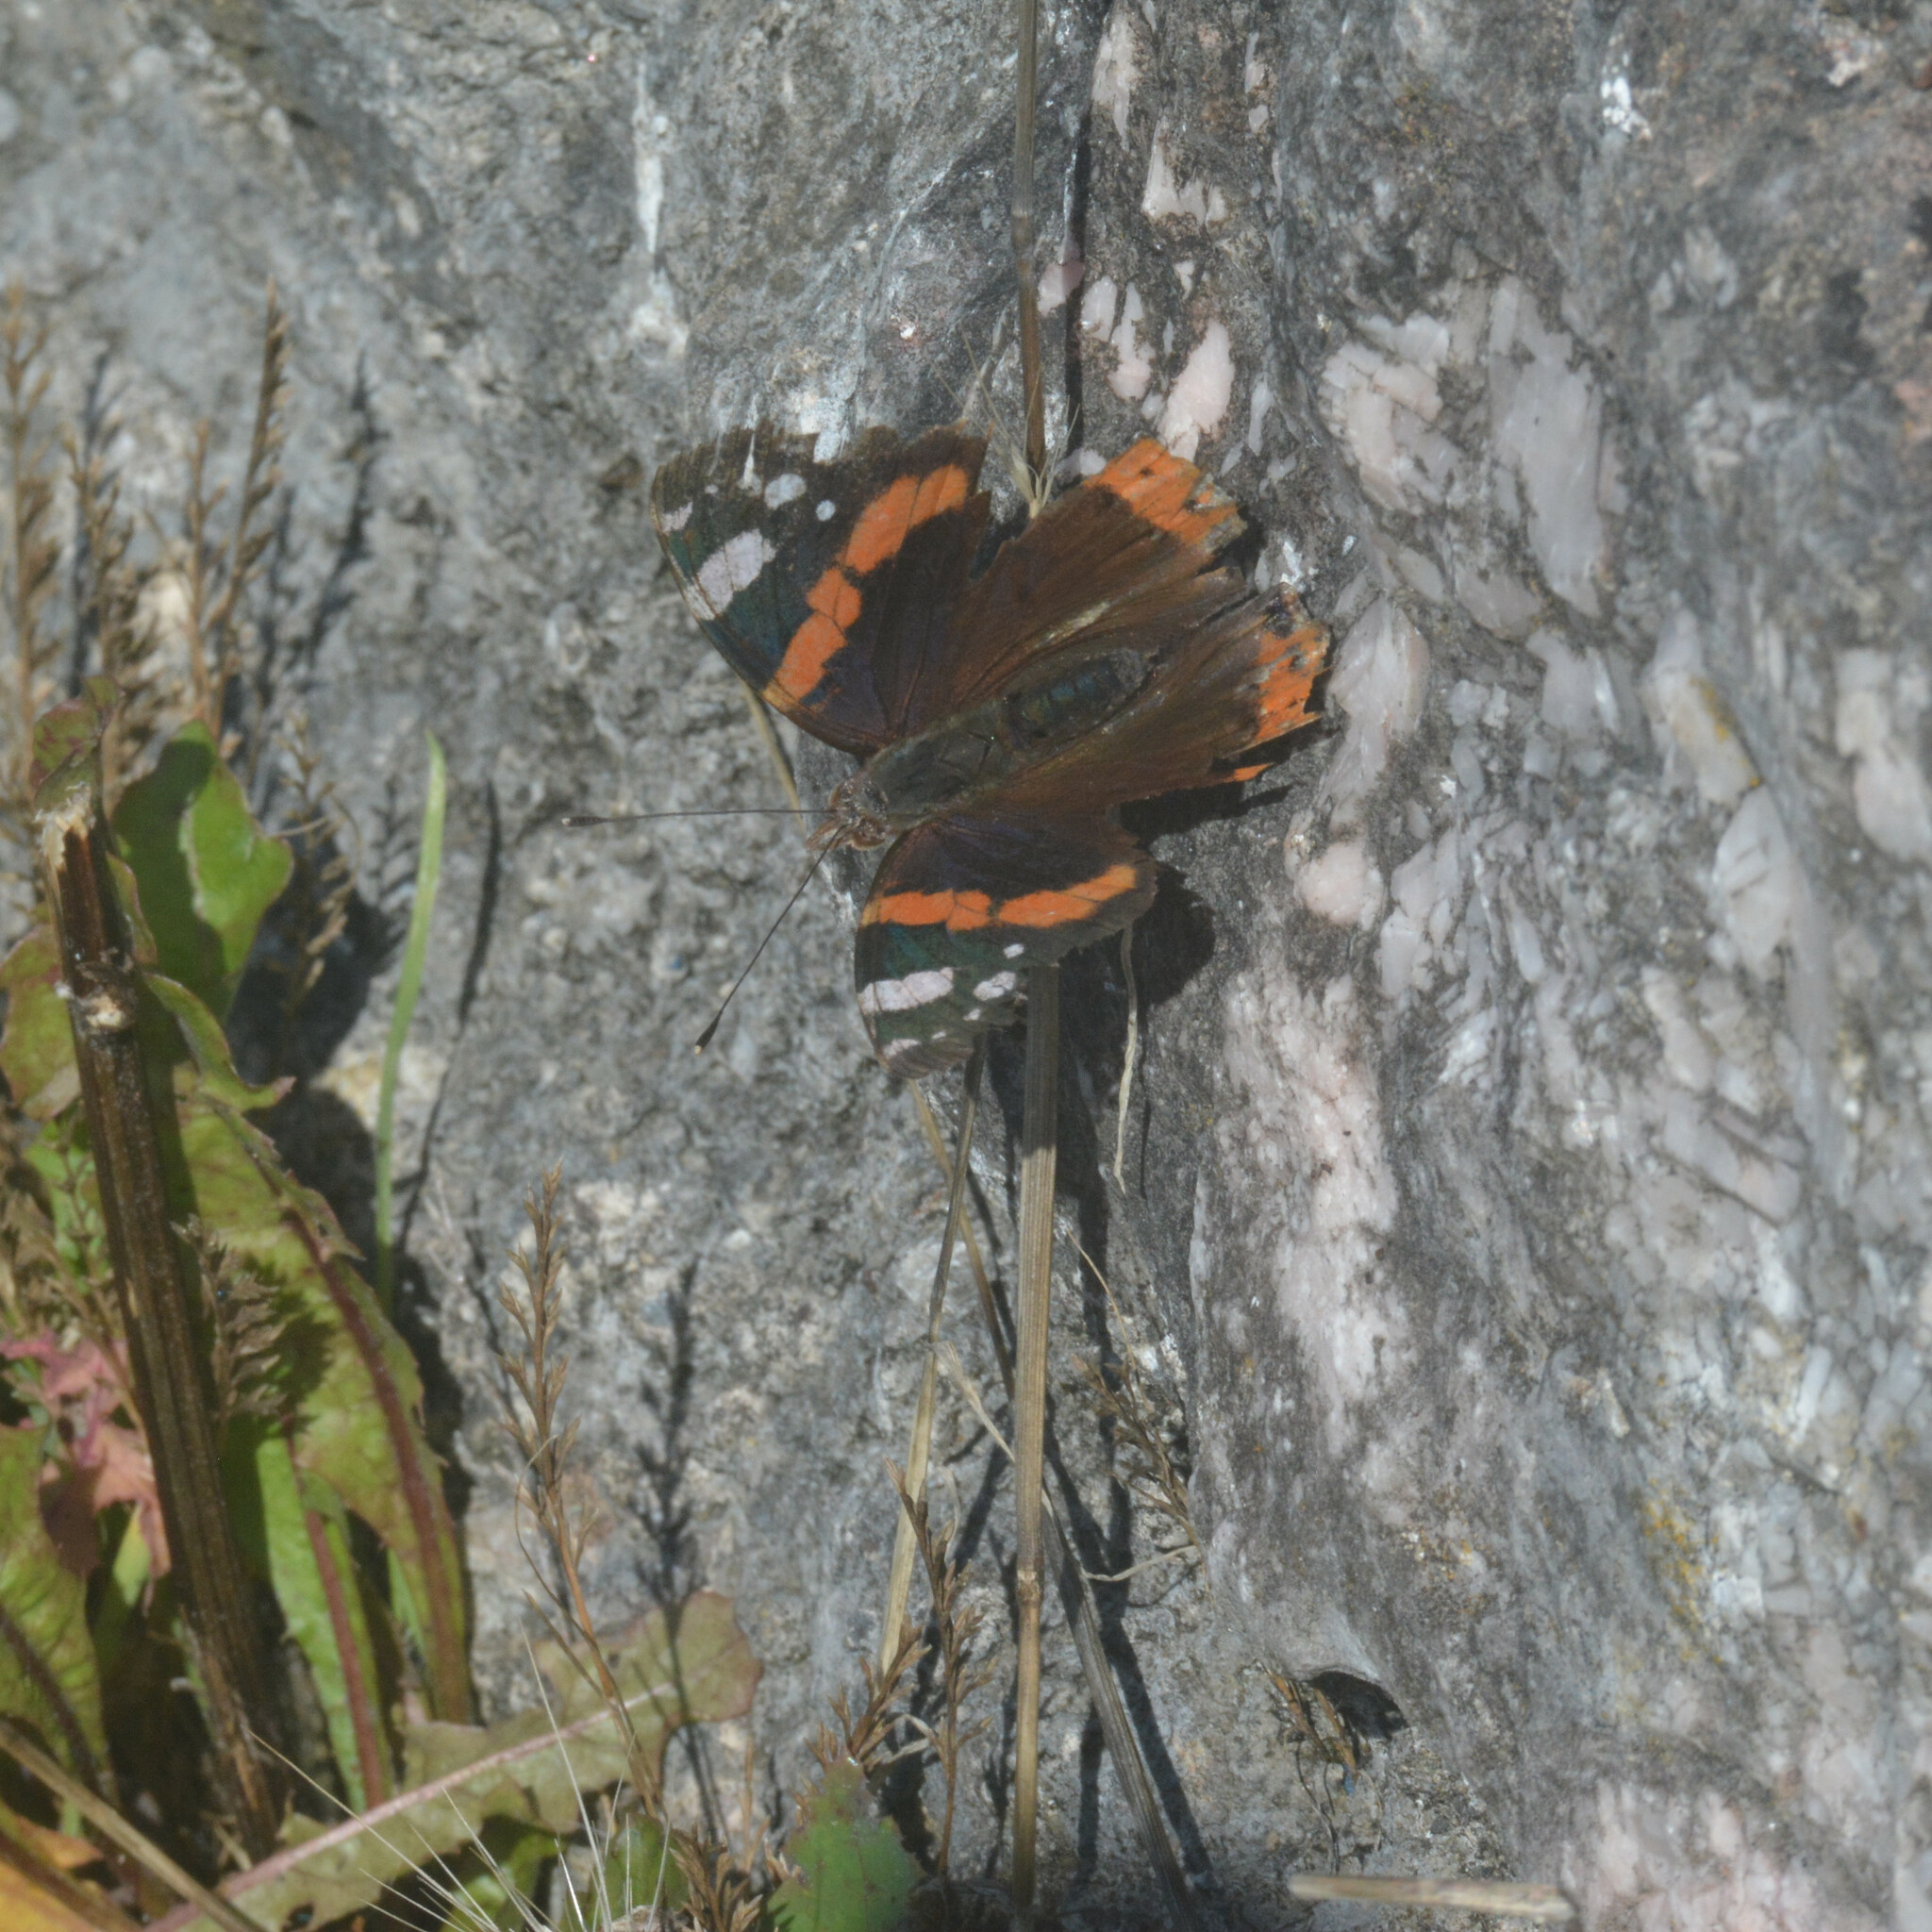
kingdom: Animalia
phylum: Arthropoda
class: Insecta
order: Lepidoptera
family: Nymphalidae
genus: Vanessa
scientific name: Vanessa atalanta
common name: Red admiral
